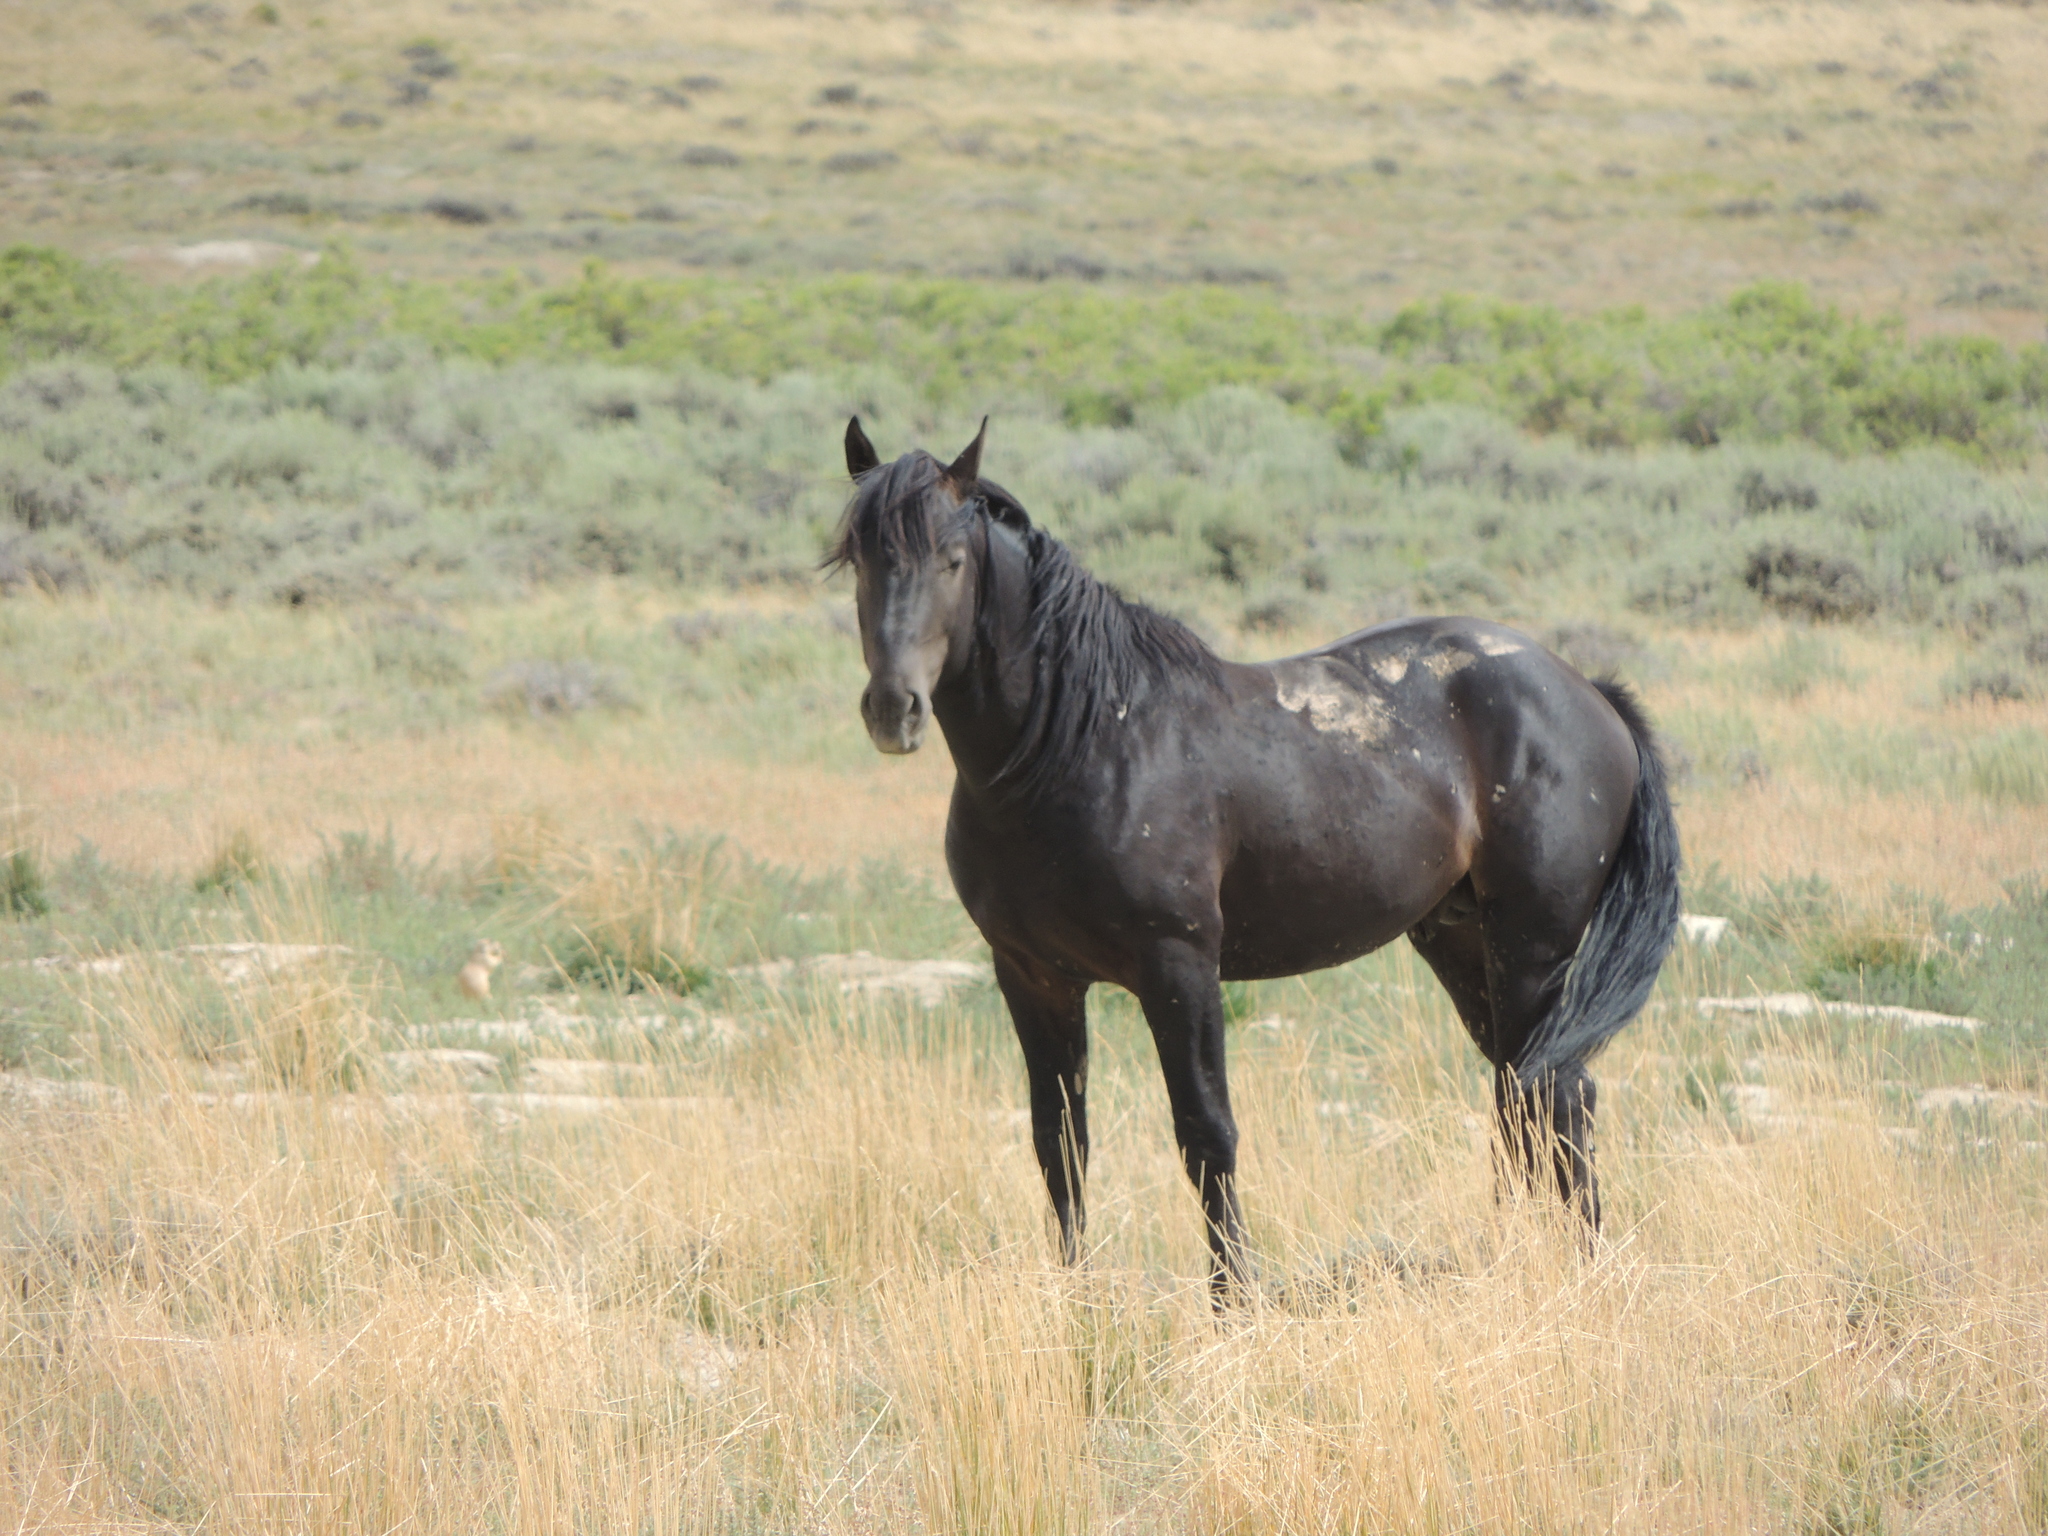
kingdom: Animalia
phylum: Chordata
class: Mammalia
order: Perissodactyla
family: Equidae
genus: Equus
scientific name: Equus caballus
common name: Horse
